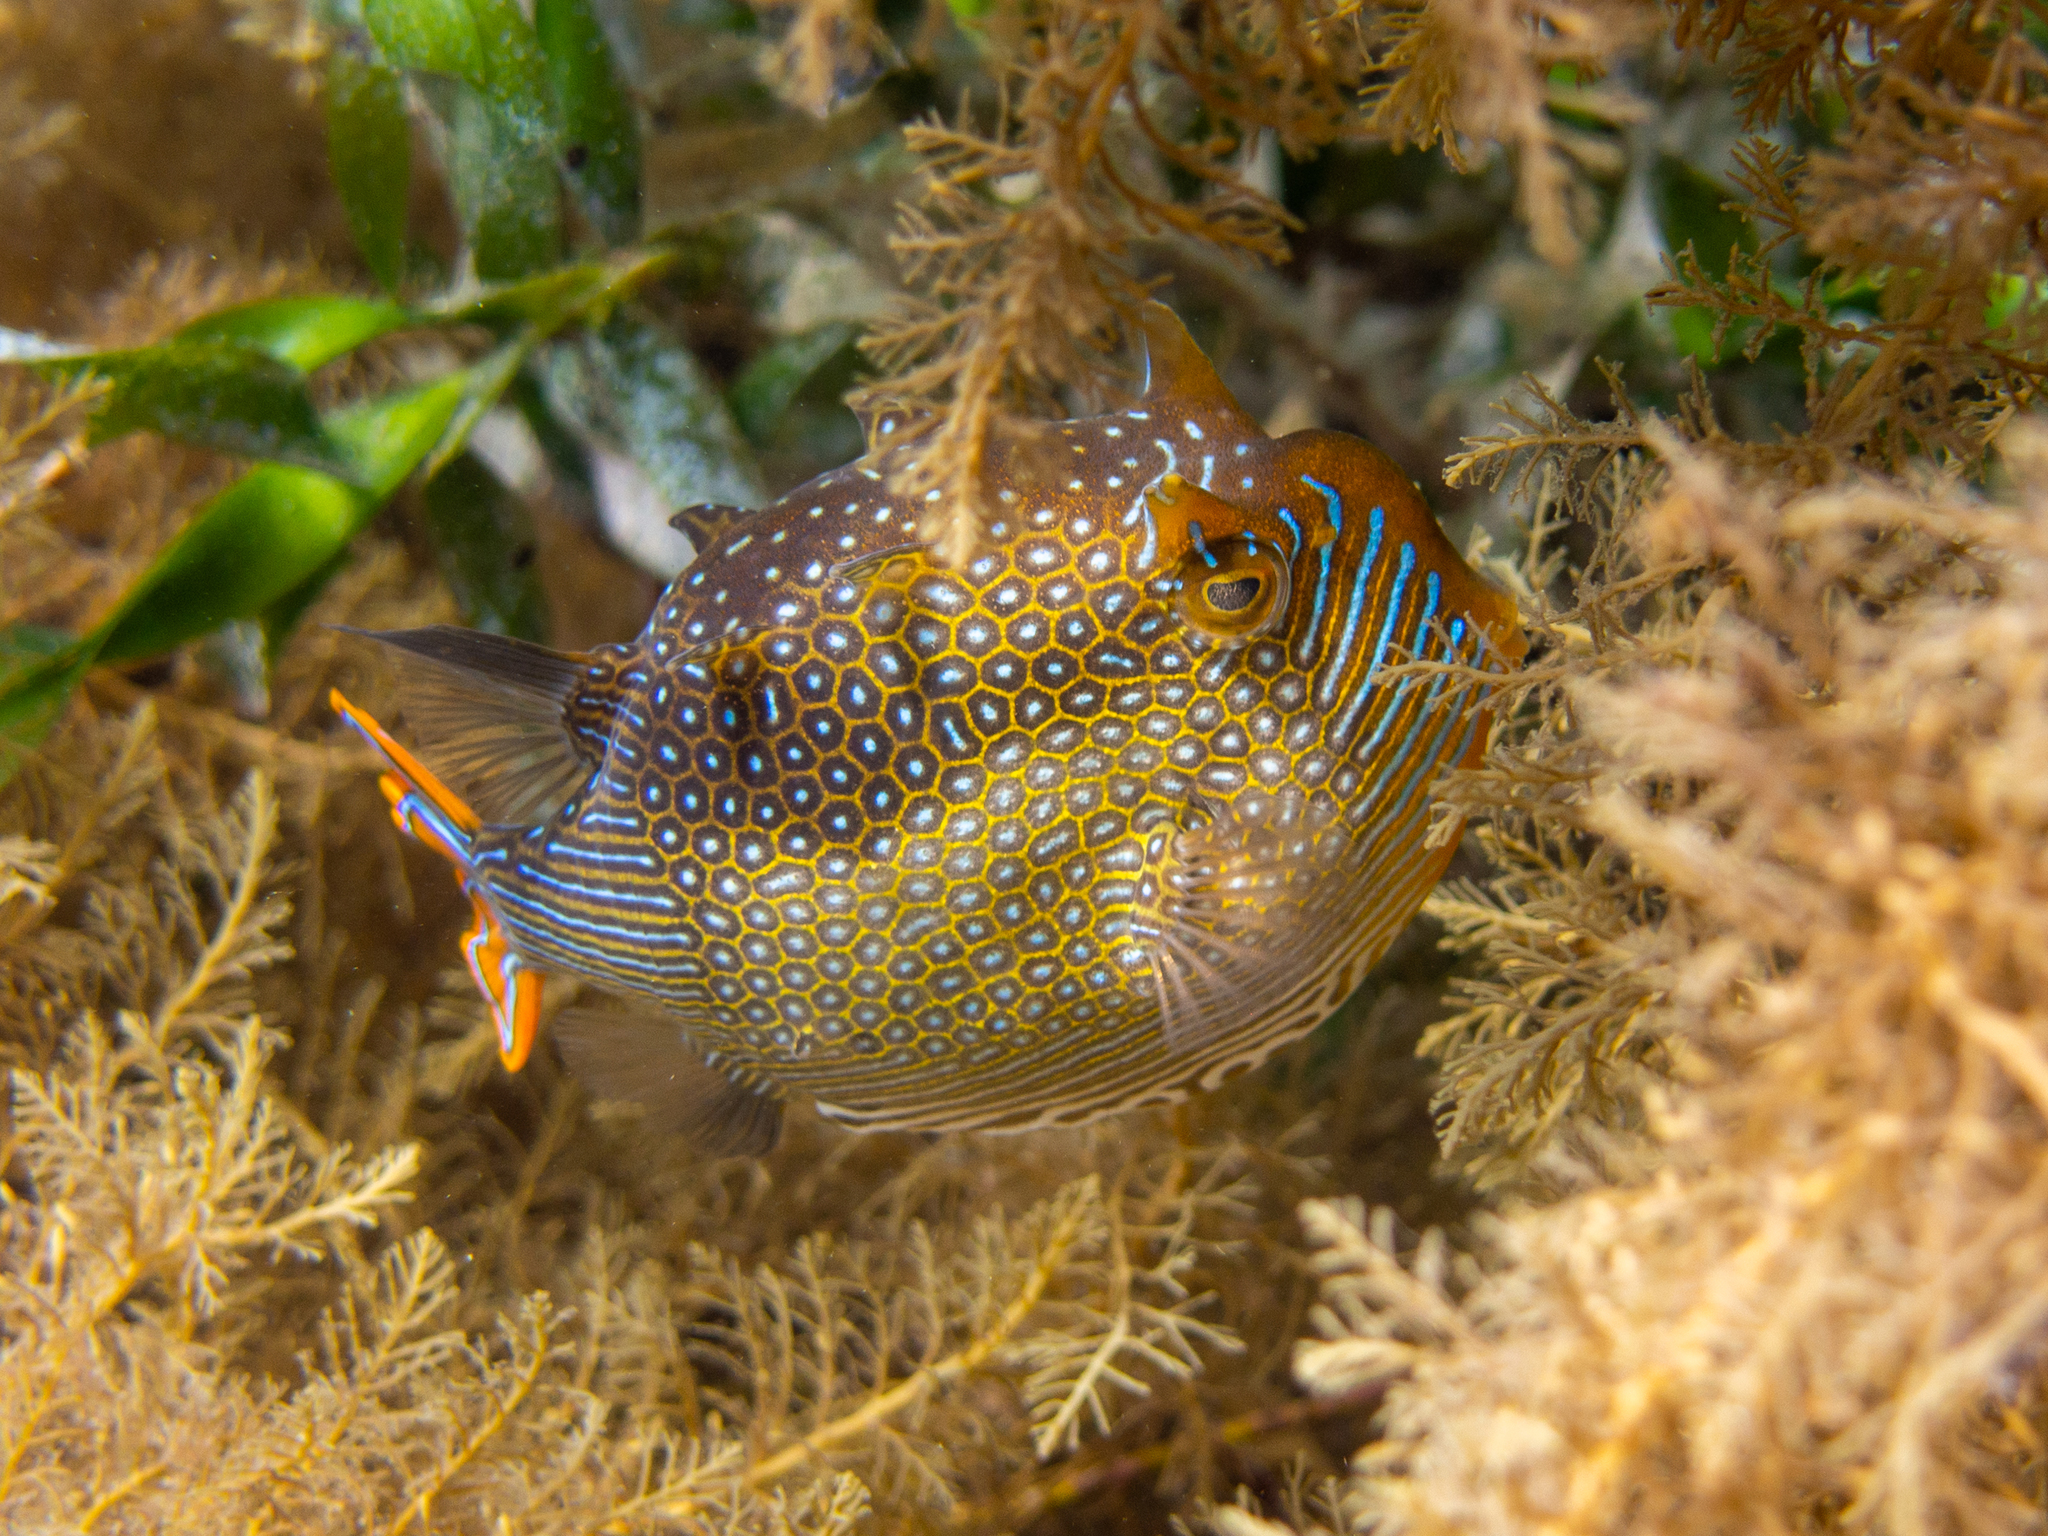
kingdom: Animalia
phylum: Chordata
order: Tetraodontiformes
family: Aracanidae
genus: Aracana
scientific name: Aracana ornata
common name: Ornate cowfish
